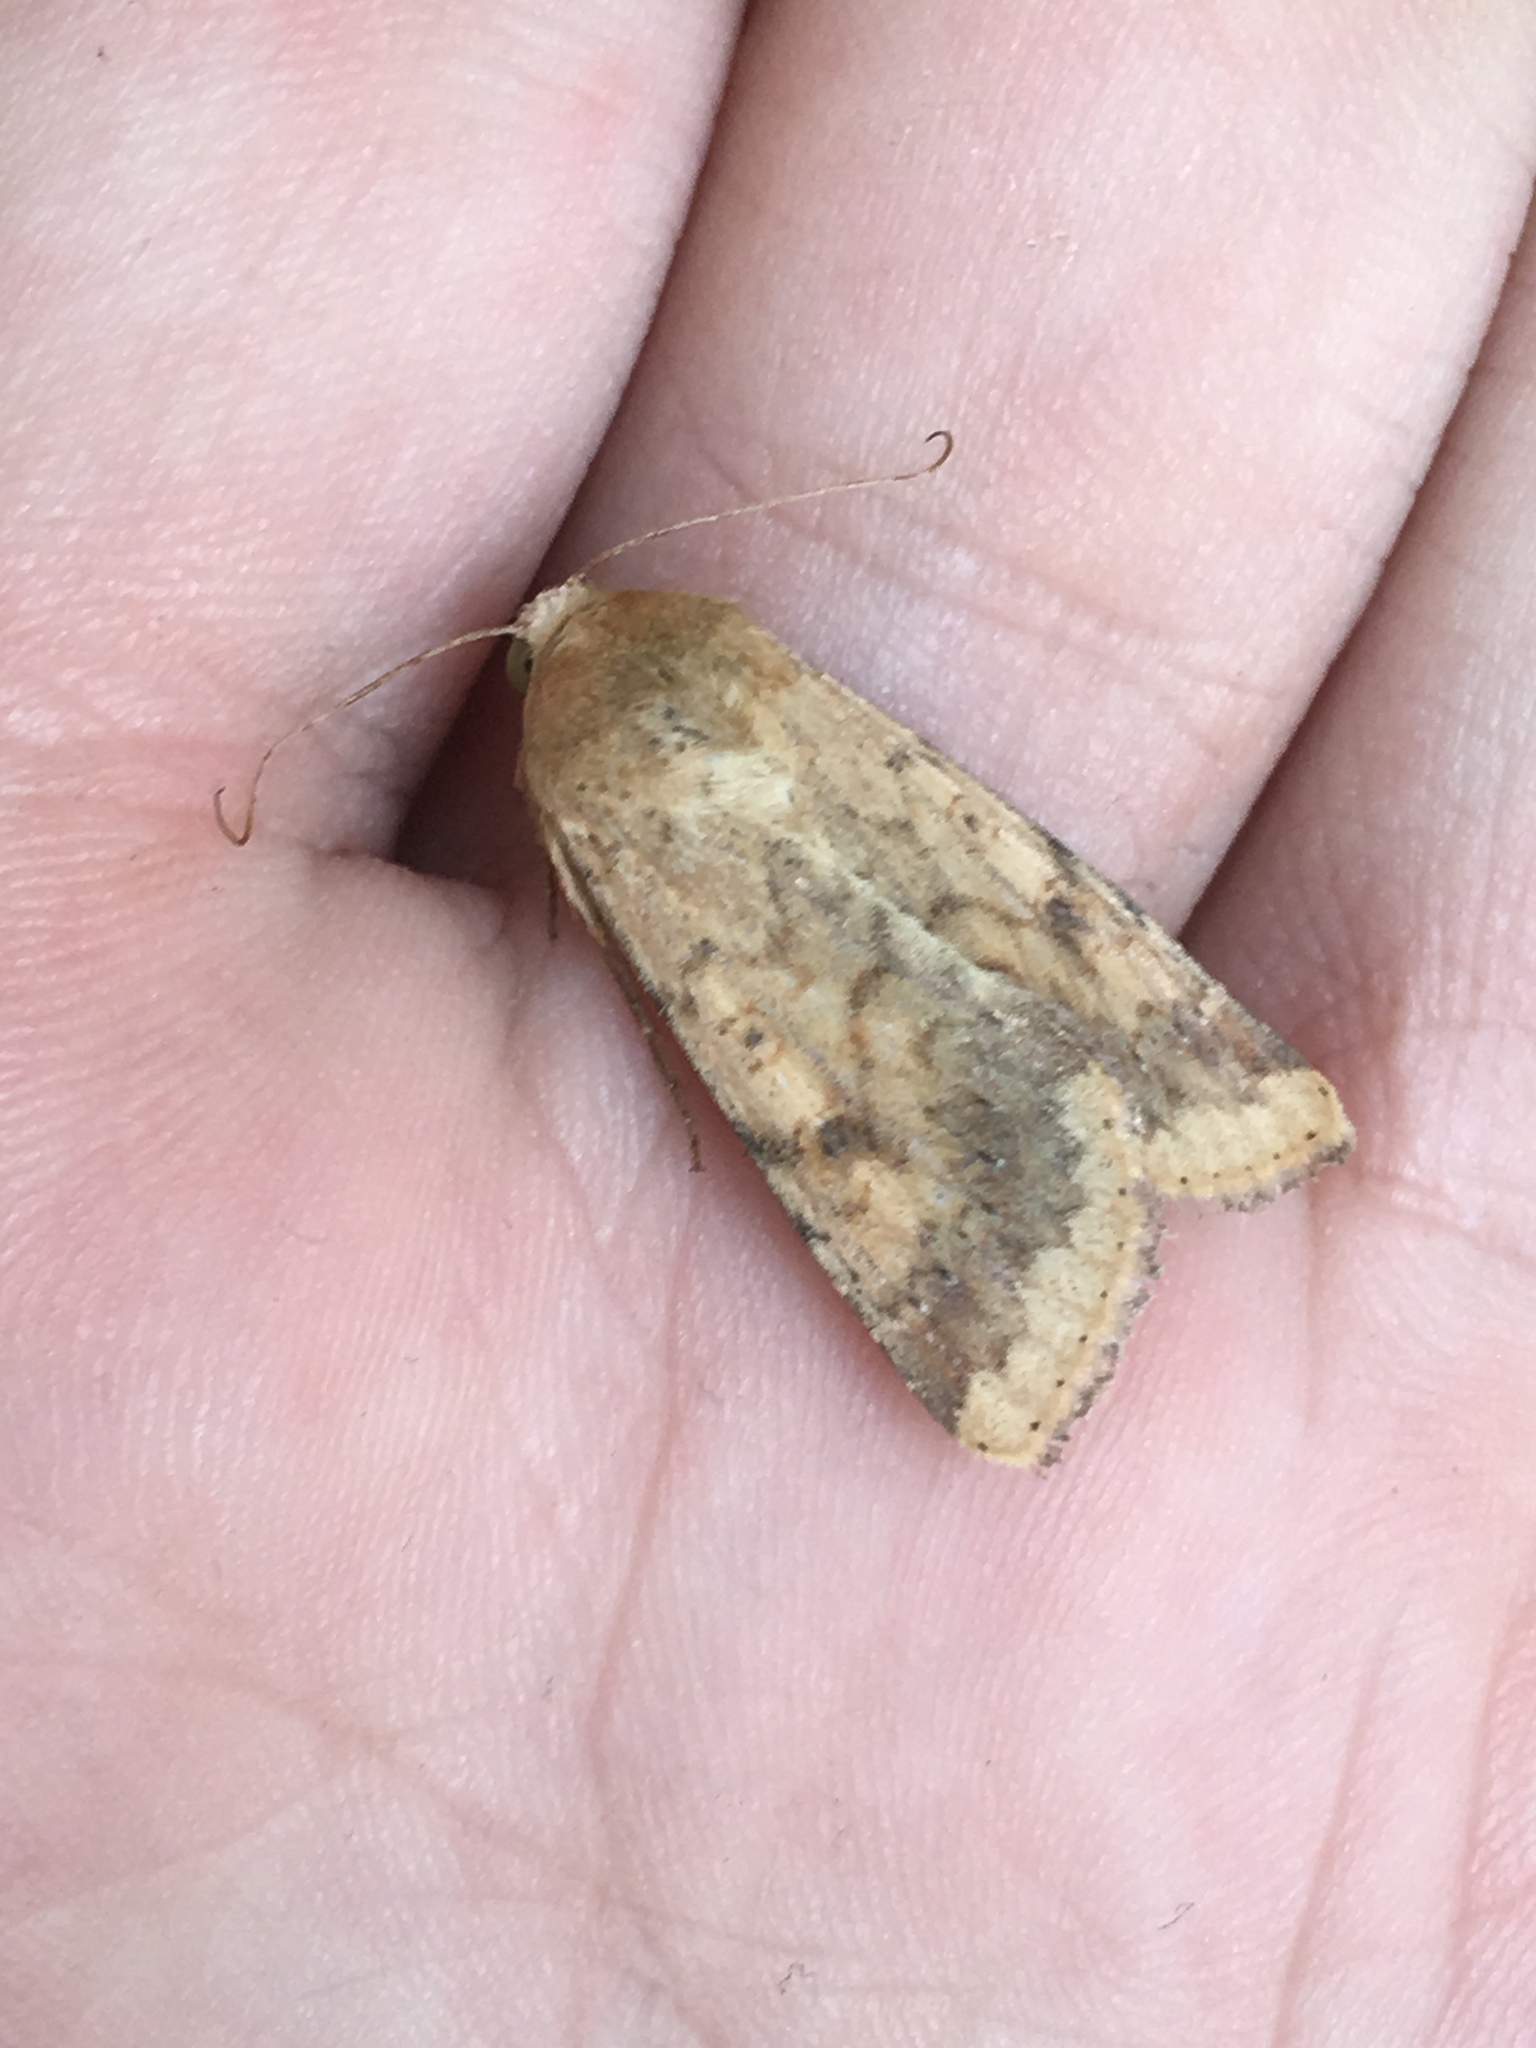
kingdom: Animalia
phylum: Arthropoda
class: Insecta
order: Lepidoptera
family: Noctuidae
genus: Helicoverpa
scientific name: Helicoverpa zea
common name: Bollworm
